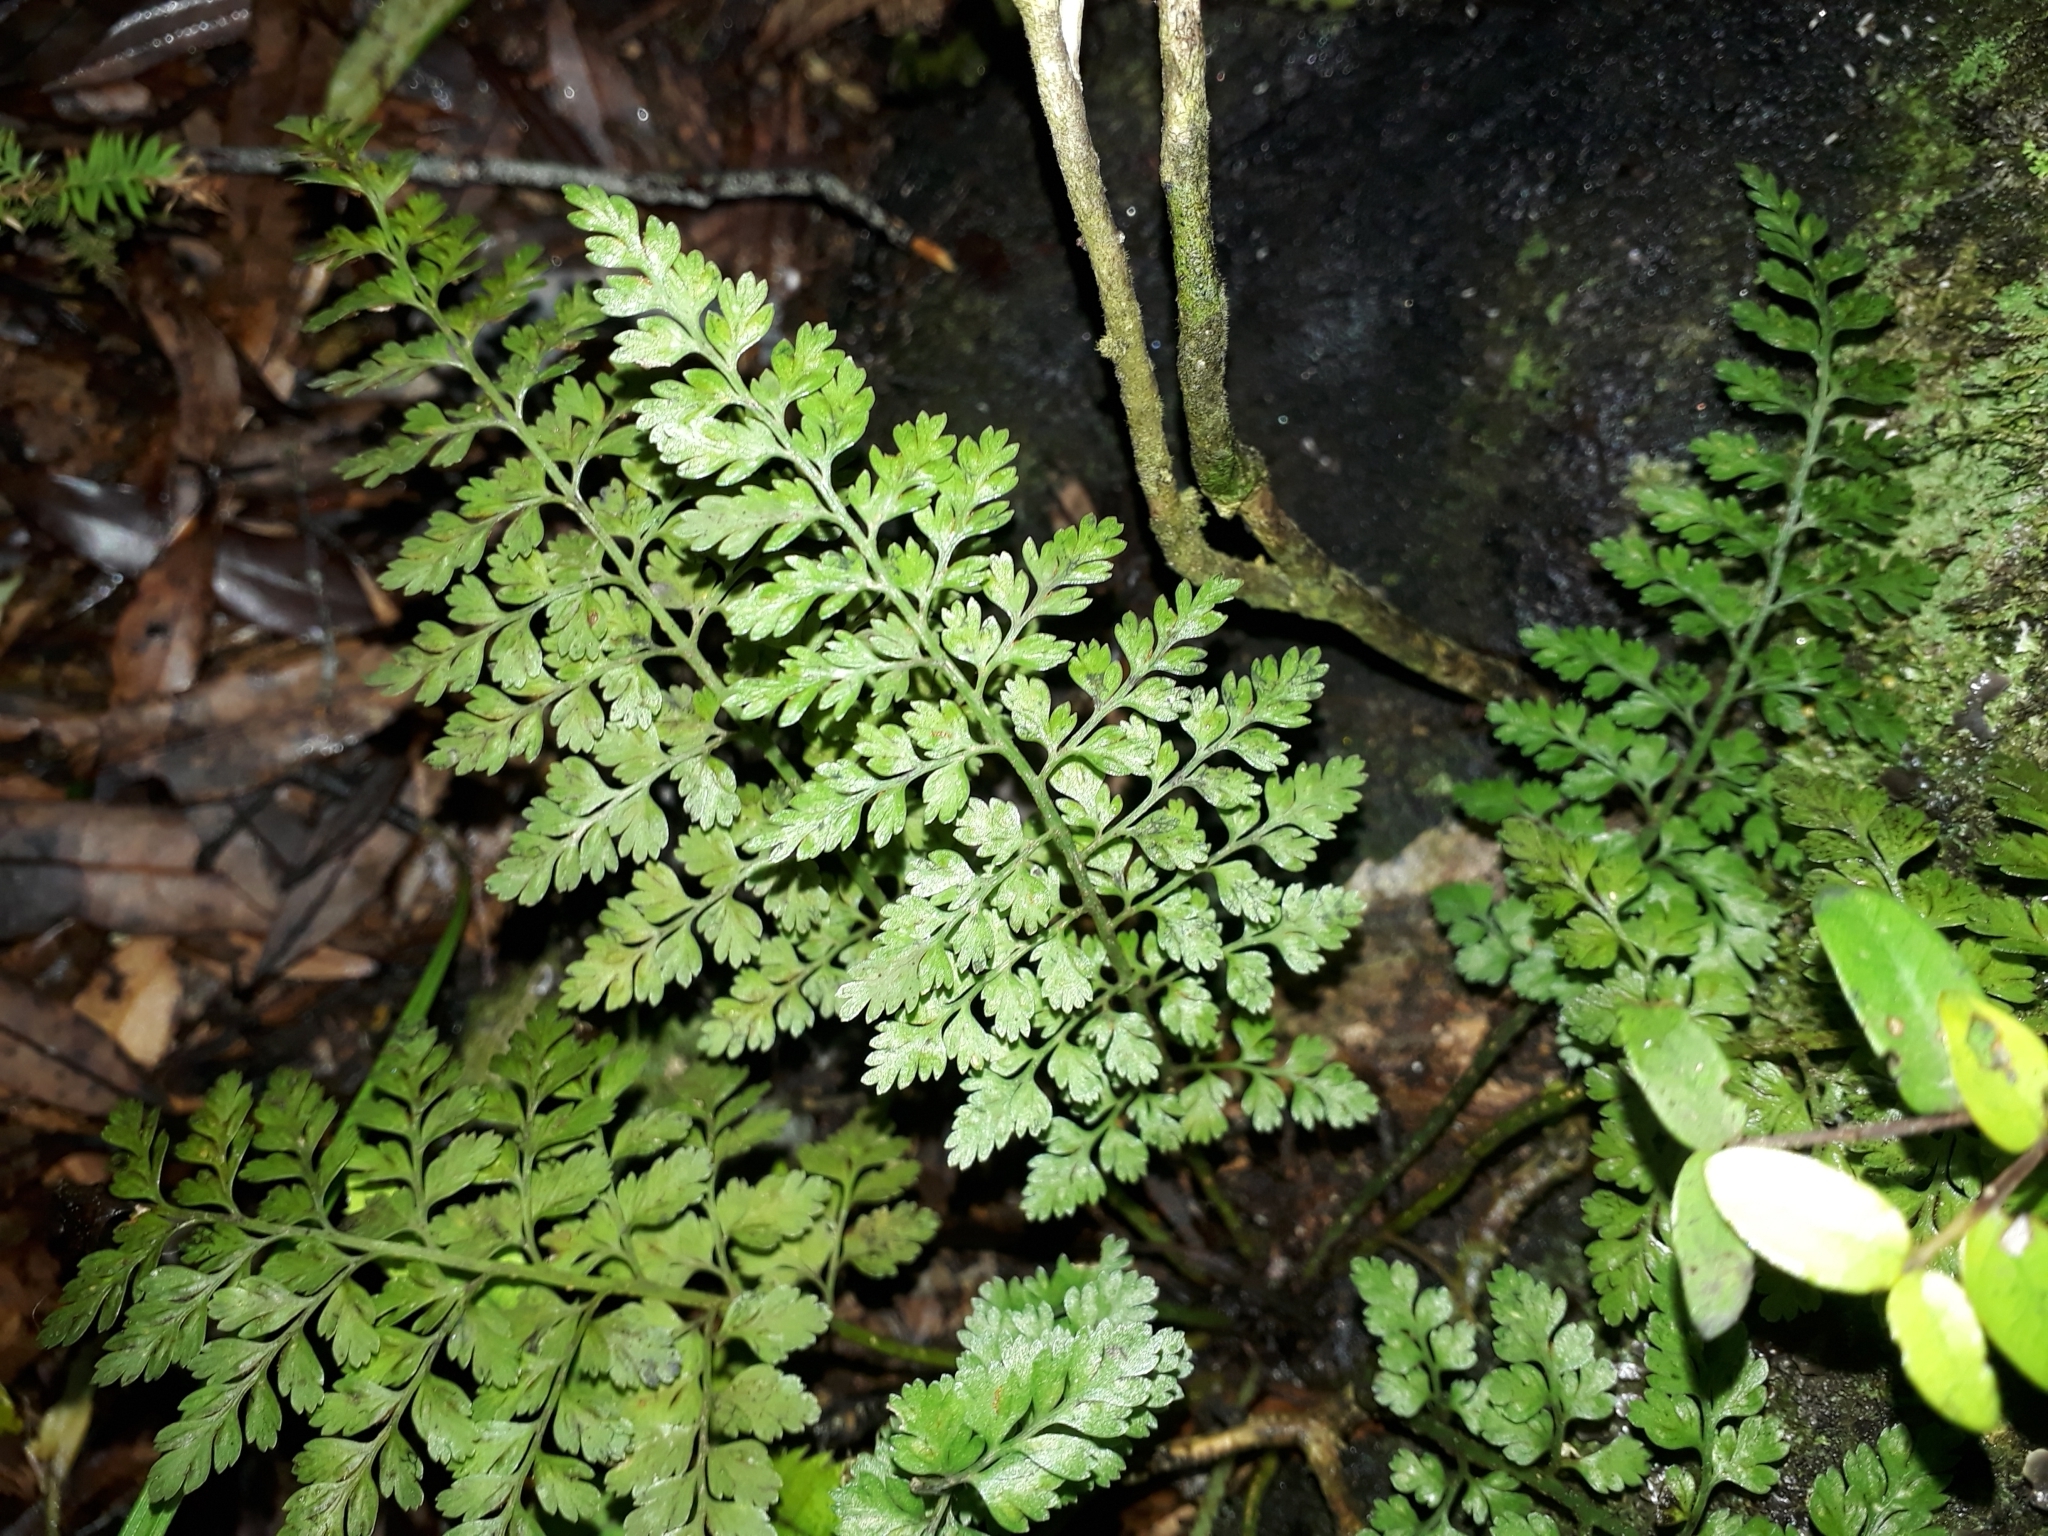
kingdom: Plantae
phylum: Tracheophyta
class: Polypodiopsida
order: Polypodiales
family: Aspleniaceae
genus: Asplenium
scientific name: Asplenium hookerianum
